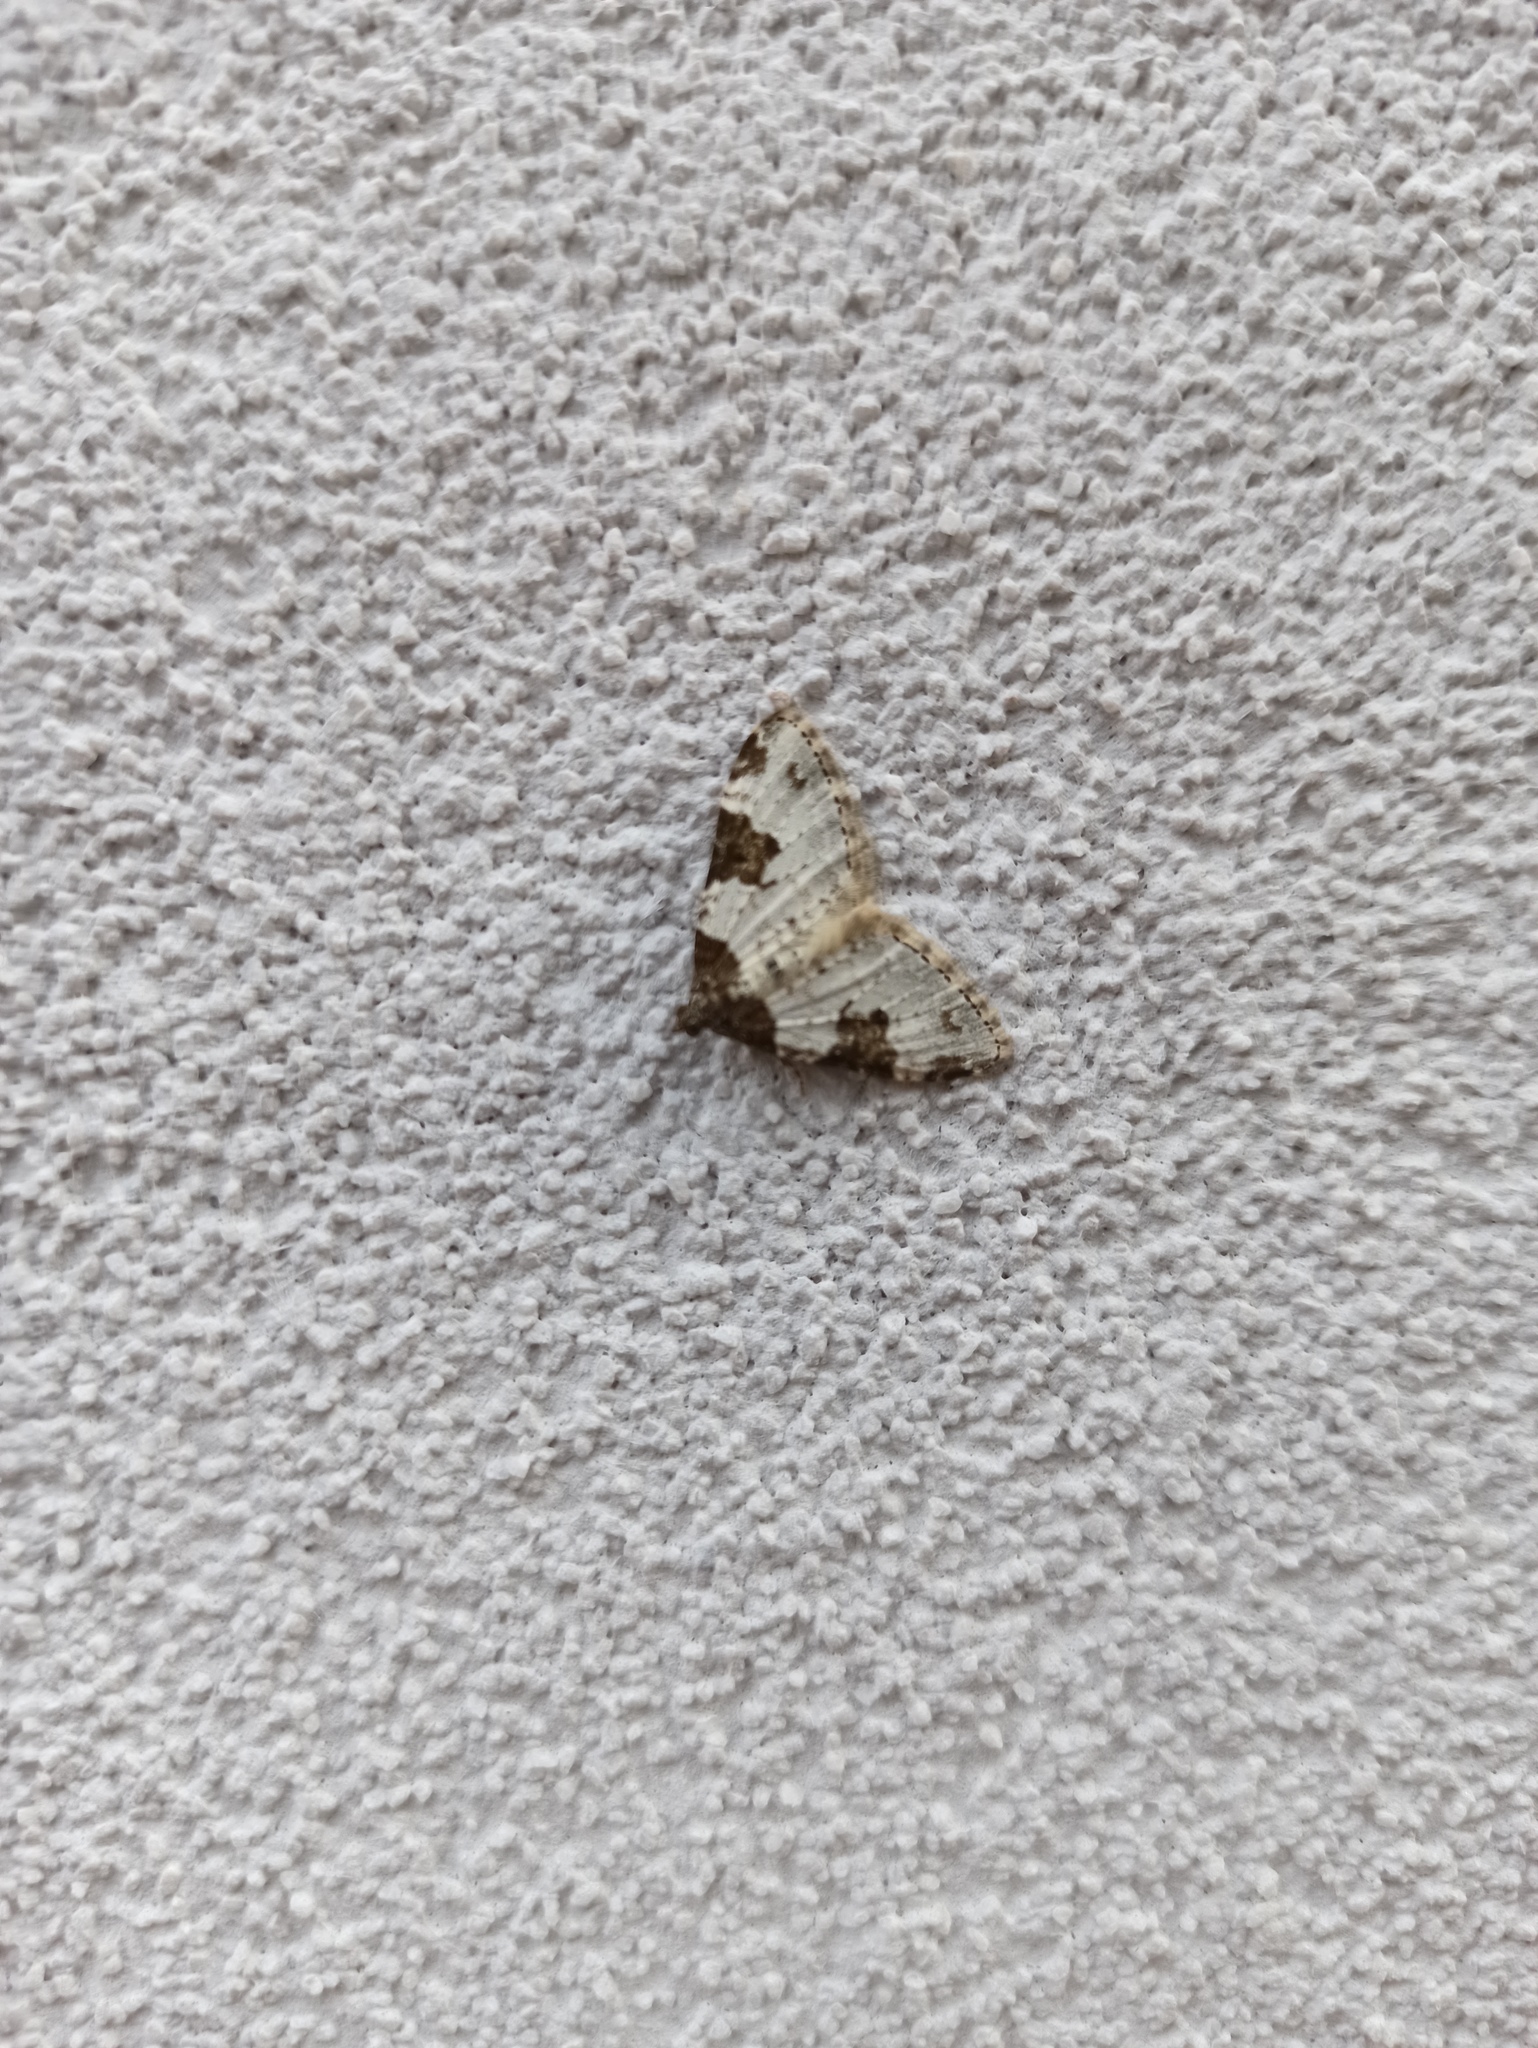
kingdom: Animalia
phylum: Arthropoda
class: Insecta
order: Lepidoptera
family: Geometridae
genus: Xanthorhoe
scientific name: Xanthorhoe fluctuata
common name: Garden carpet
